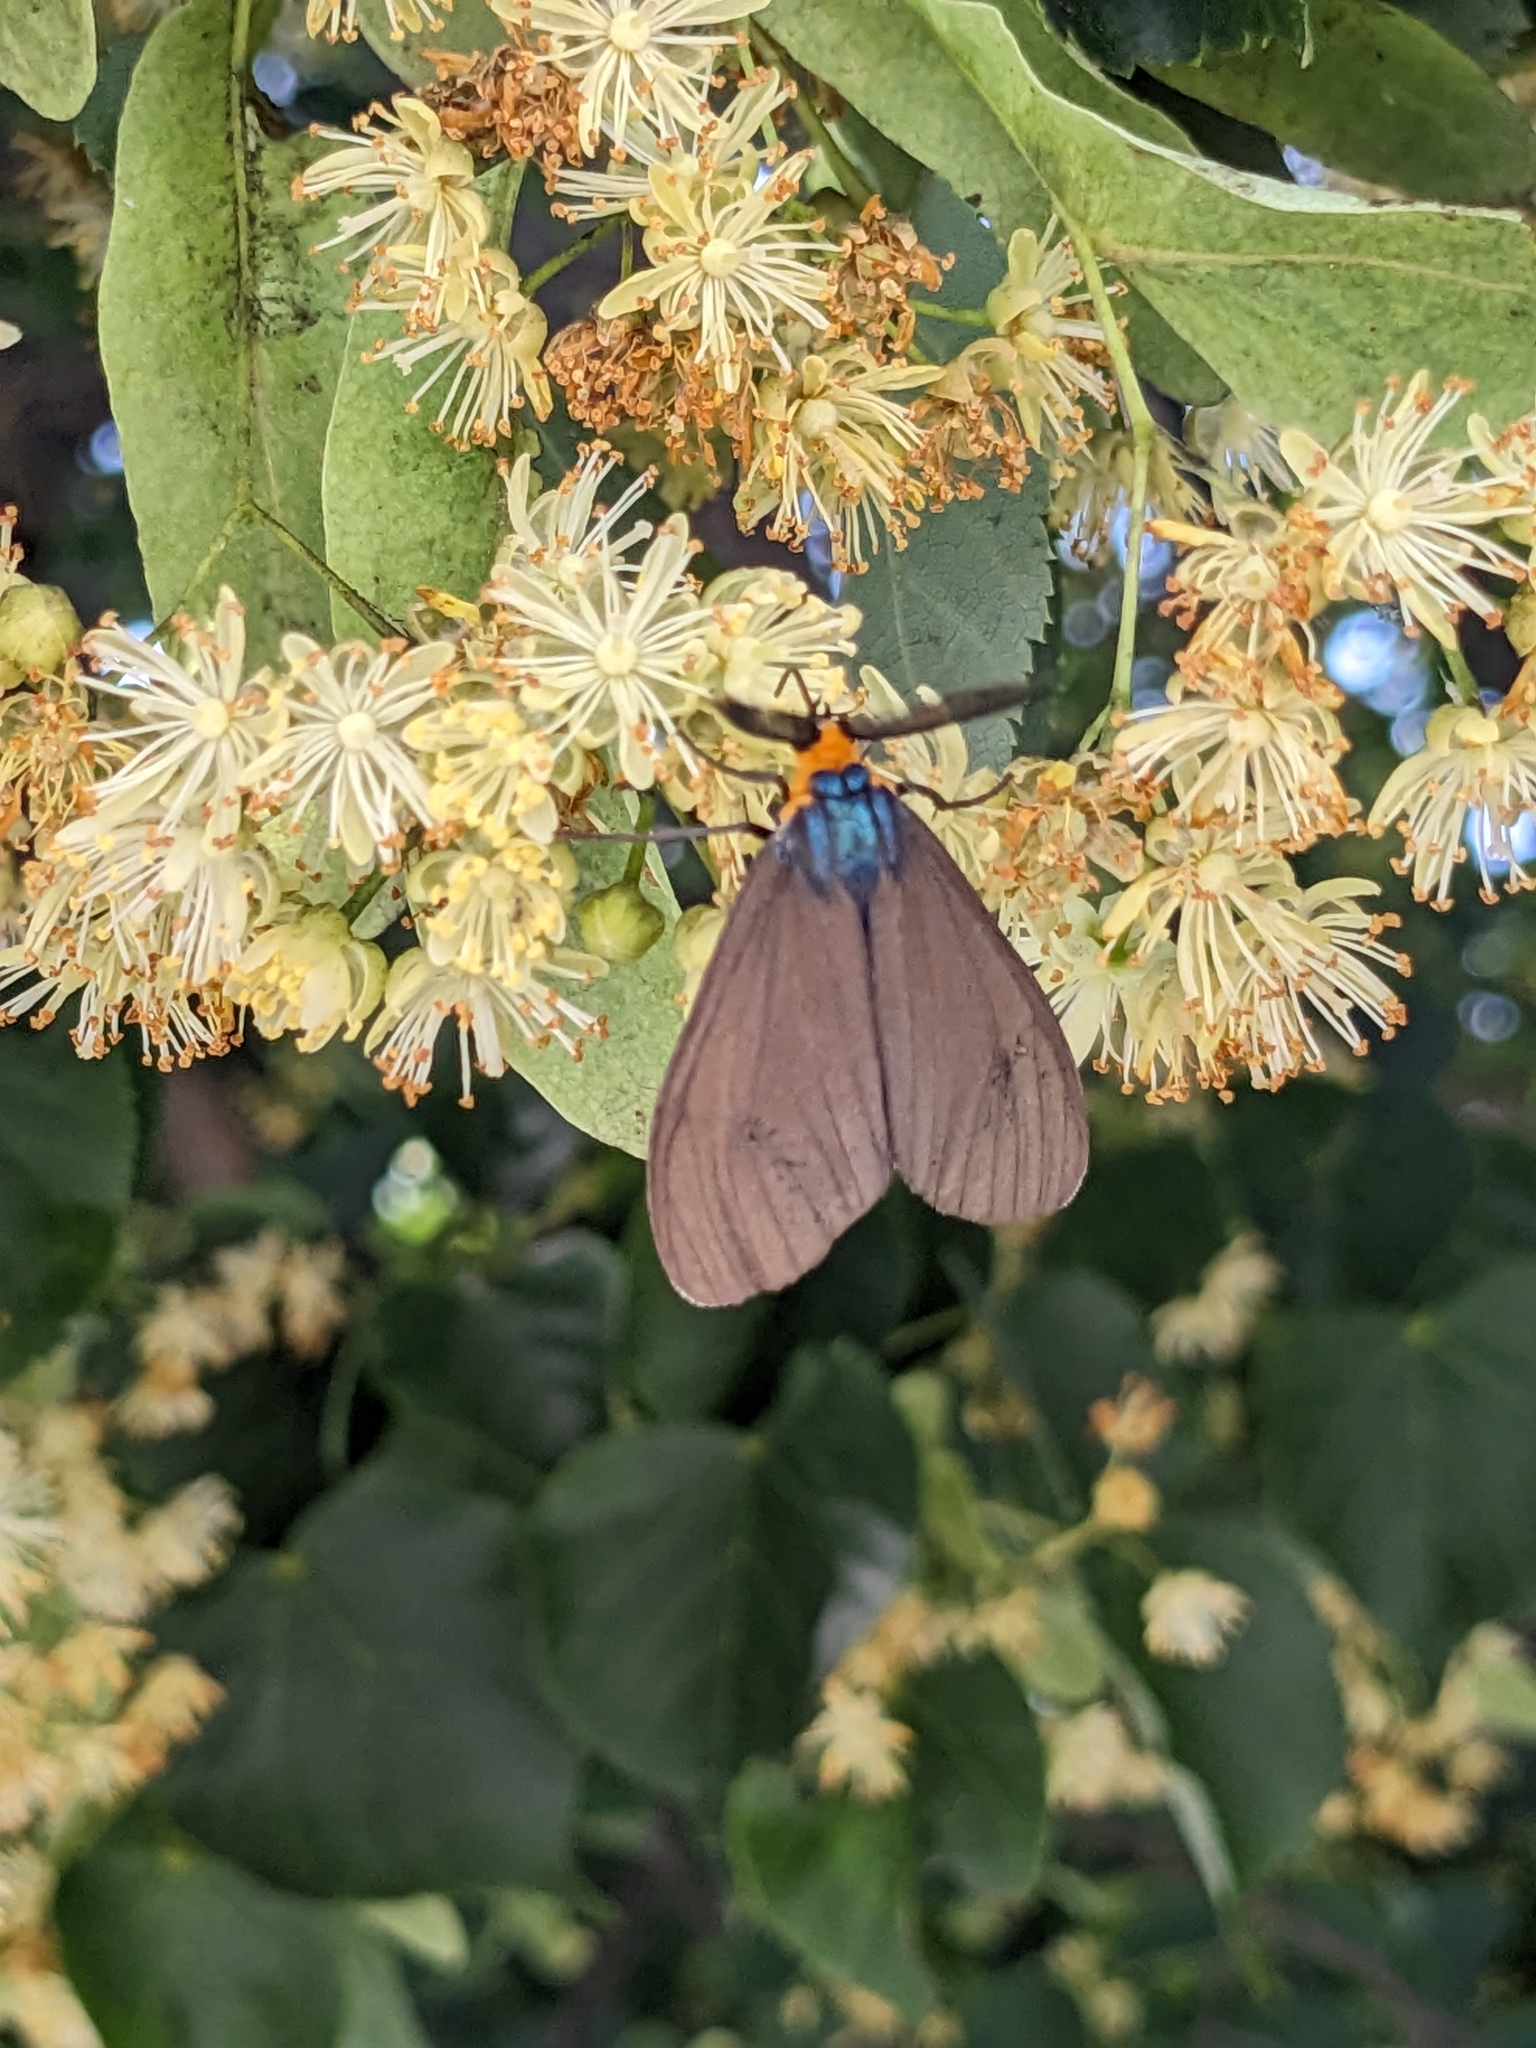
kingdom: Animalia
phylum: Arthropoda
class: Insecta
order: Lepidoptera
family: Erebidae
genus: Ctenucha
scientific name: Ctenucha virginica
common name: Virginia ctenucha moth
